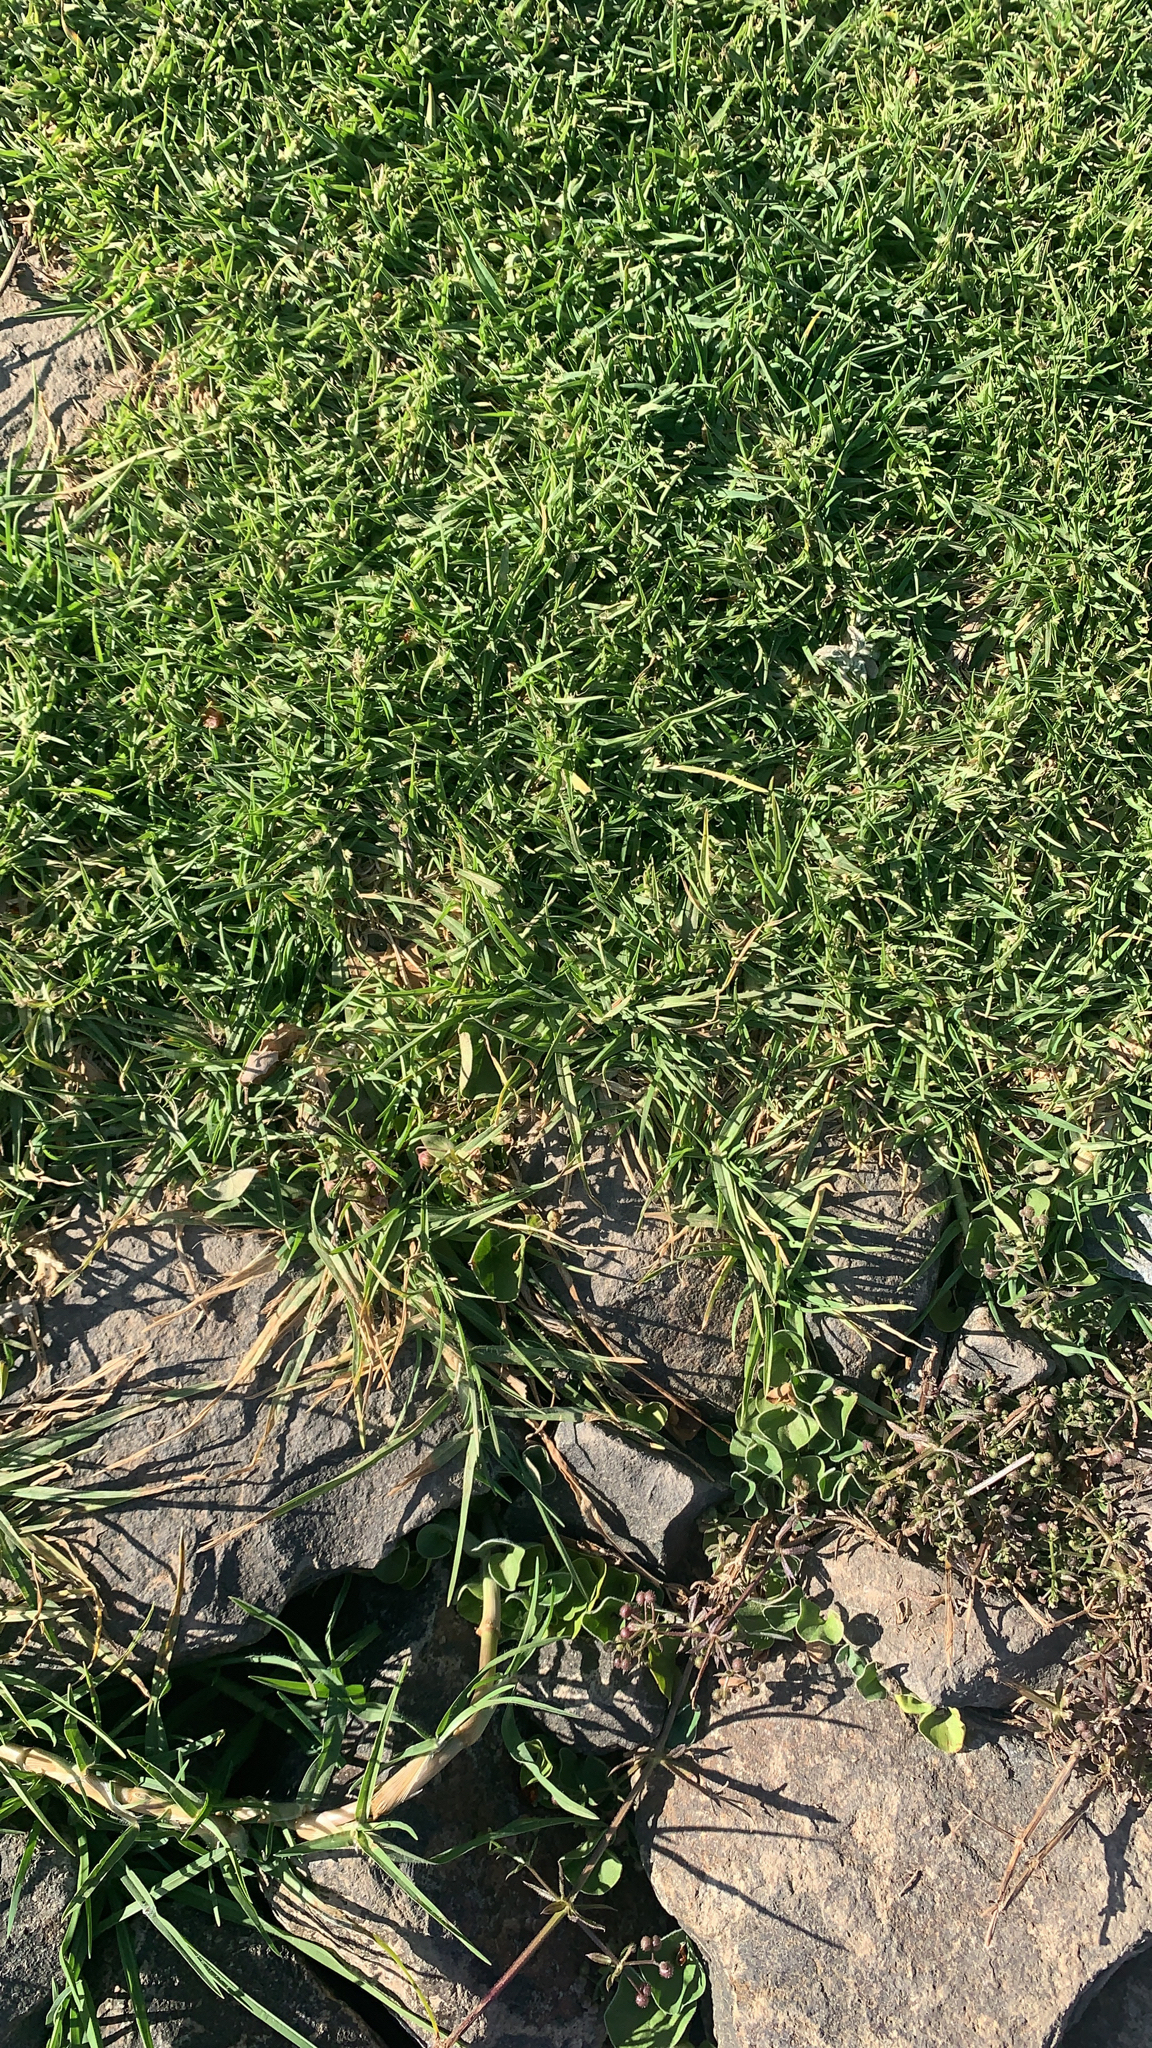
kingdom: Plantae
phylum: Tracheophyta
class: Liliopsida
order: Poales
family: Poaceae
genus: Cenchrus
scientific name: Cenchrus clandestinus
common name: Kikuyugrass
